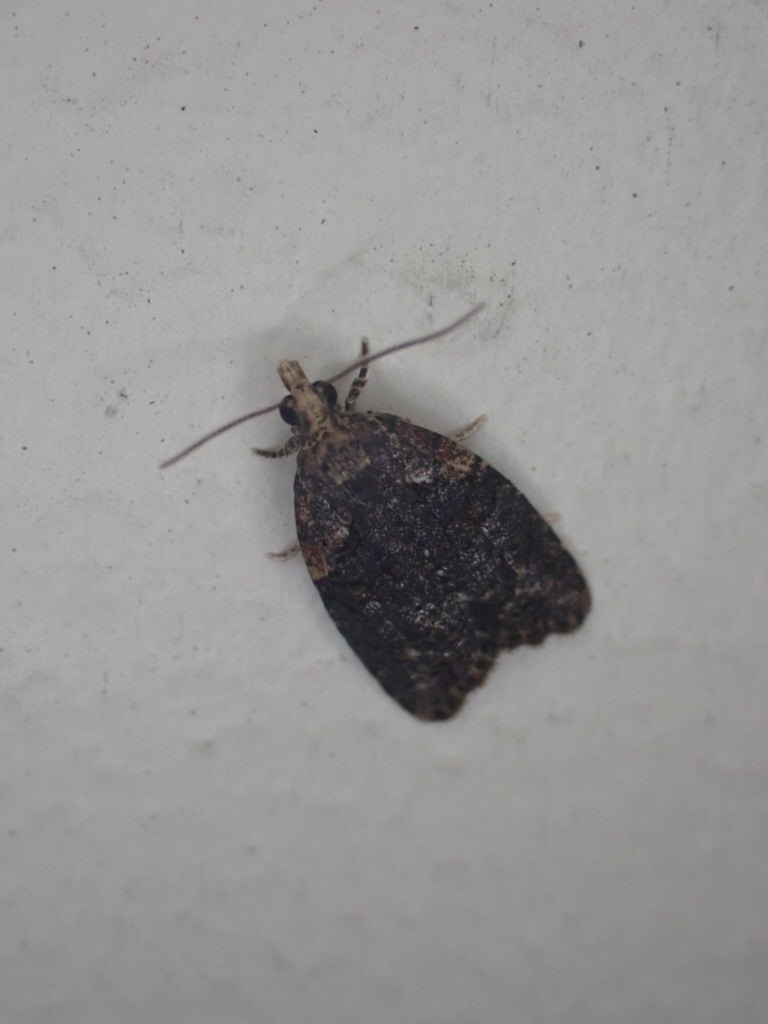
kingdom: Animalia
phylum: Arthropoda
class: Insecta
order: Lepidoptera
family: Tortricidae
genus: Capua
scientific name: Capua intractana
